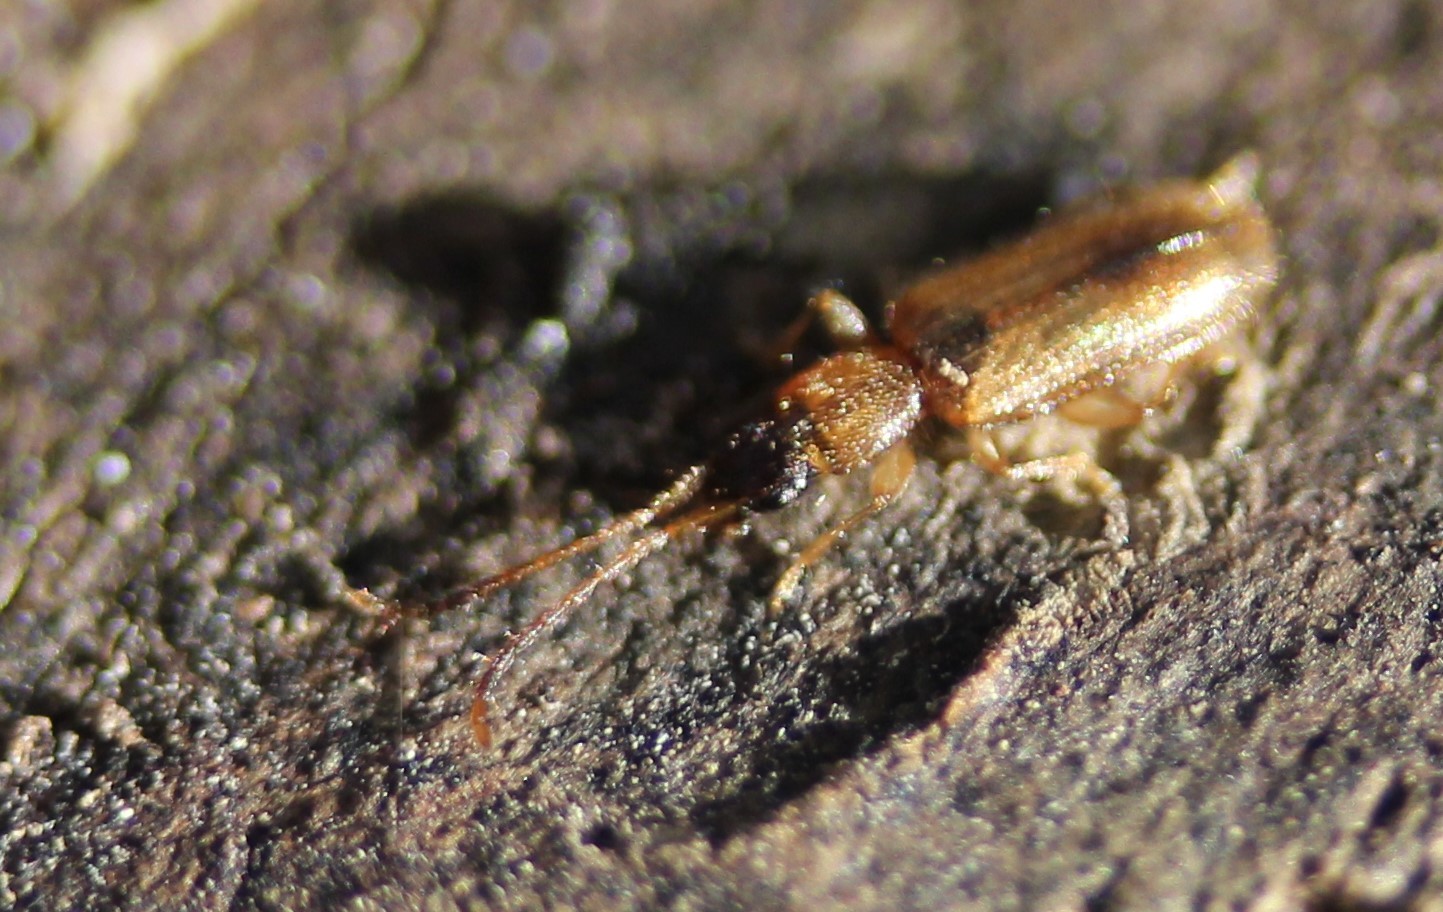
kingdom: Animalia
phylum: Arthropoda
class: Insecta
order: Coleoptera
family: Silvanidae
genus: Telephanus
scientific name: Telephanus velox
